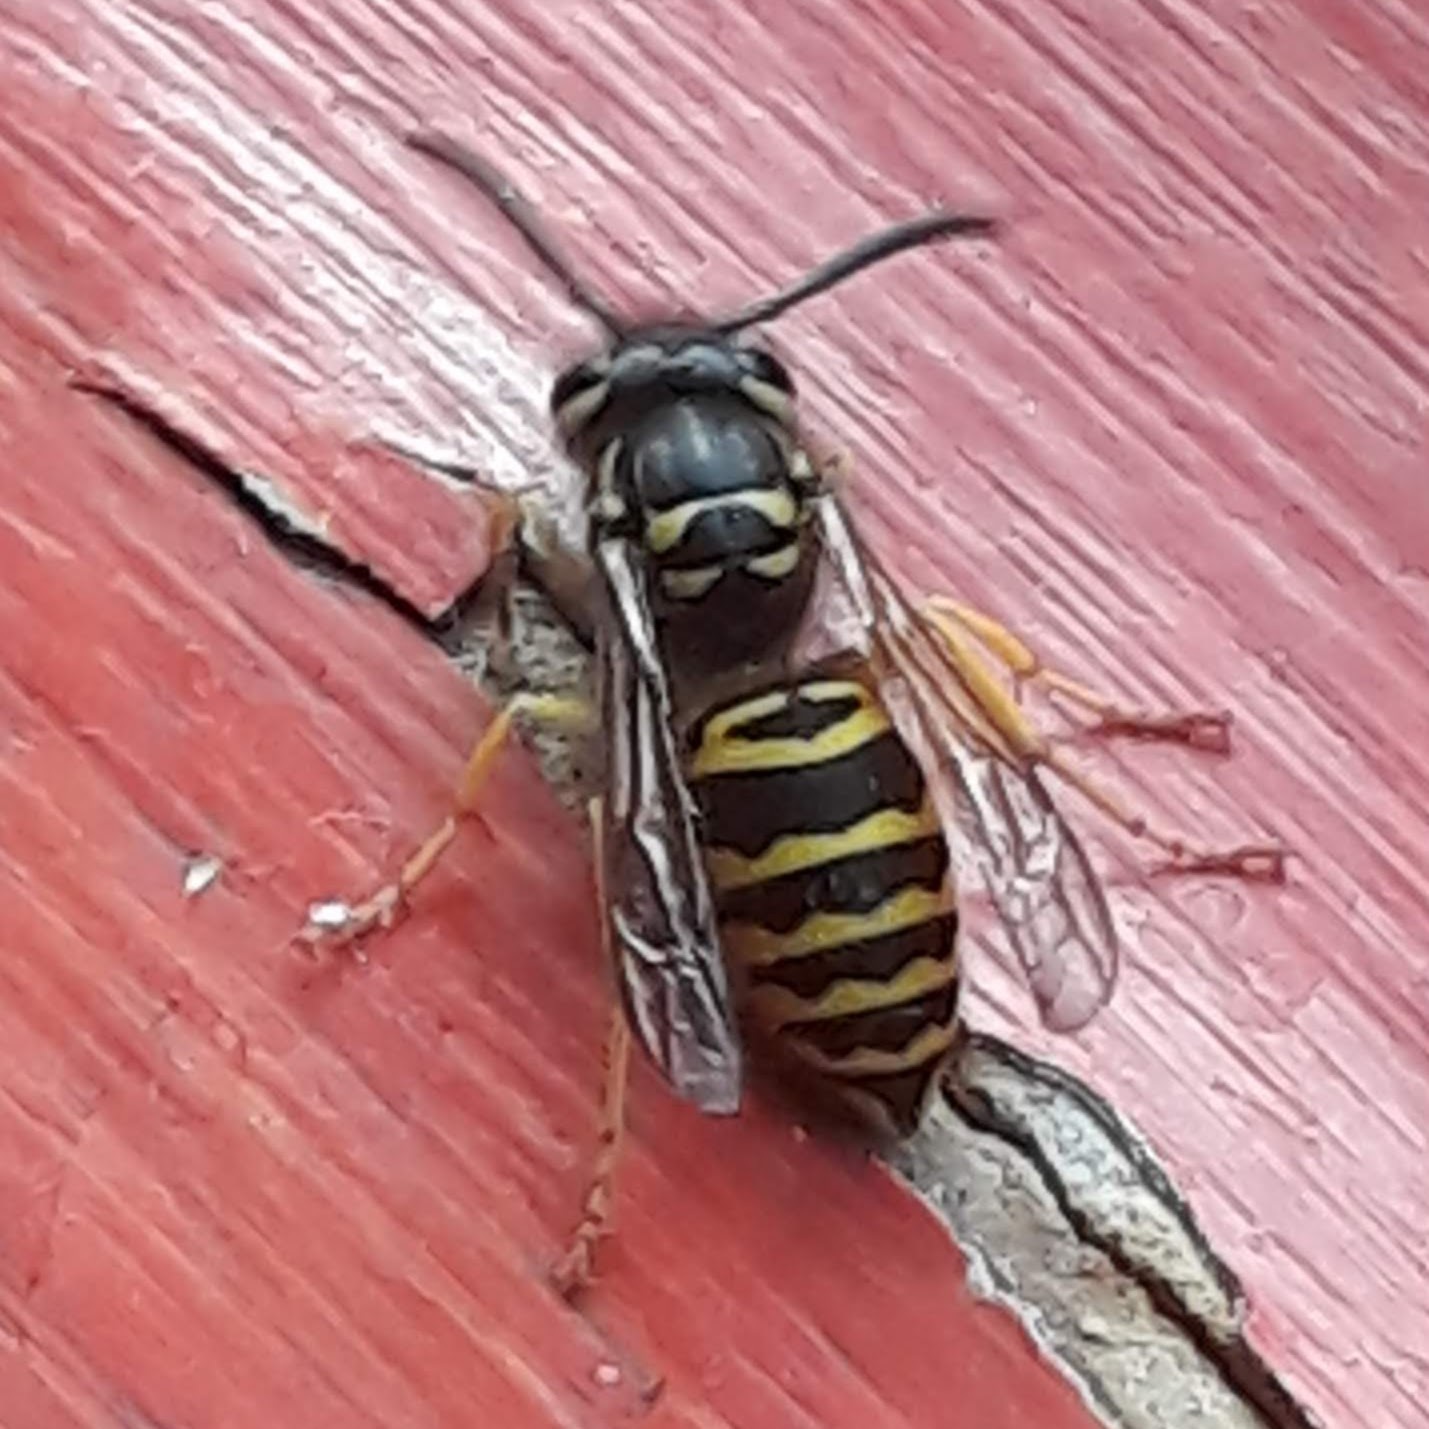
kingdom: Animalia
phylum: Arthropoda
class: Insecta
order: Hymenoptera
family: Vespidae
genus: Vespula
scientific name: Vespula maculifrons
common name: Eastern yellowjacket
